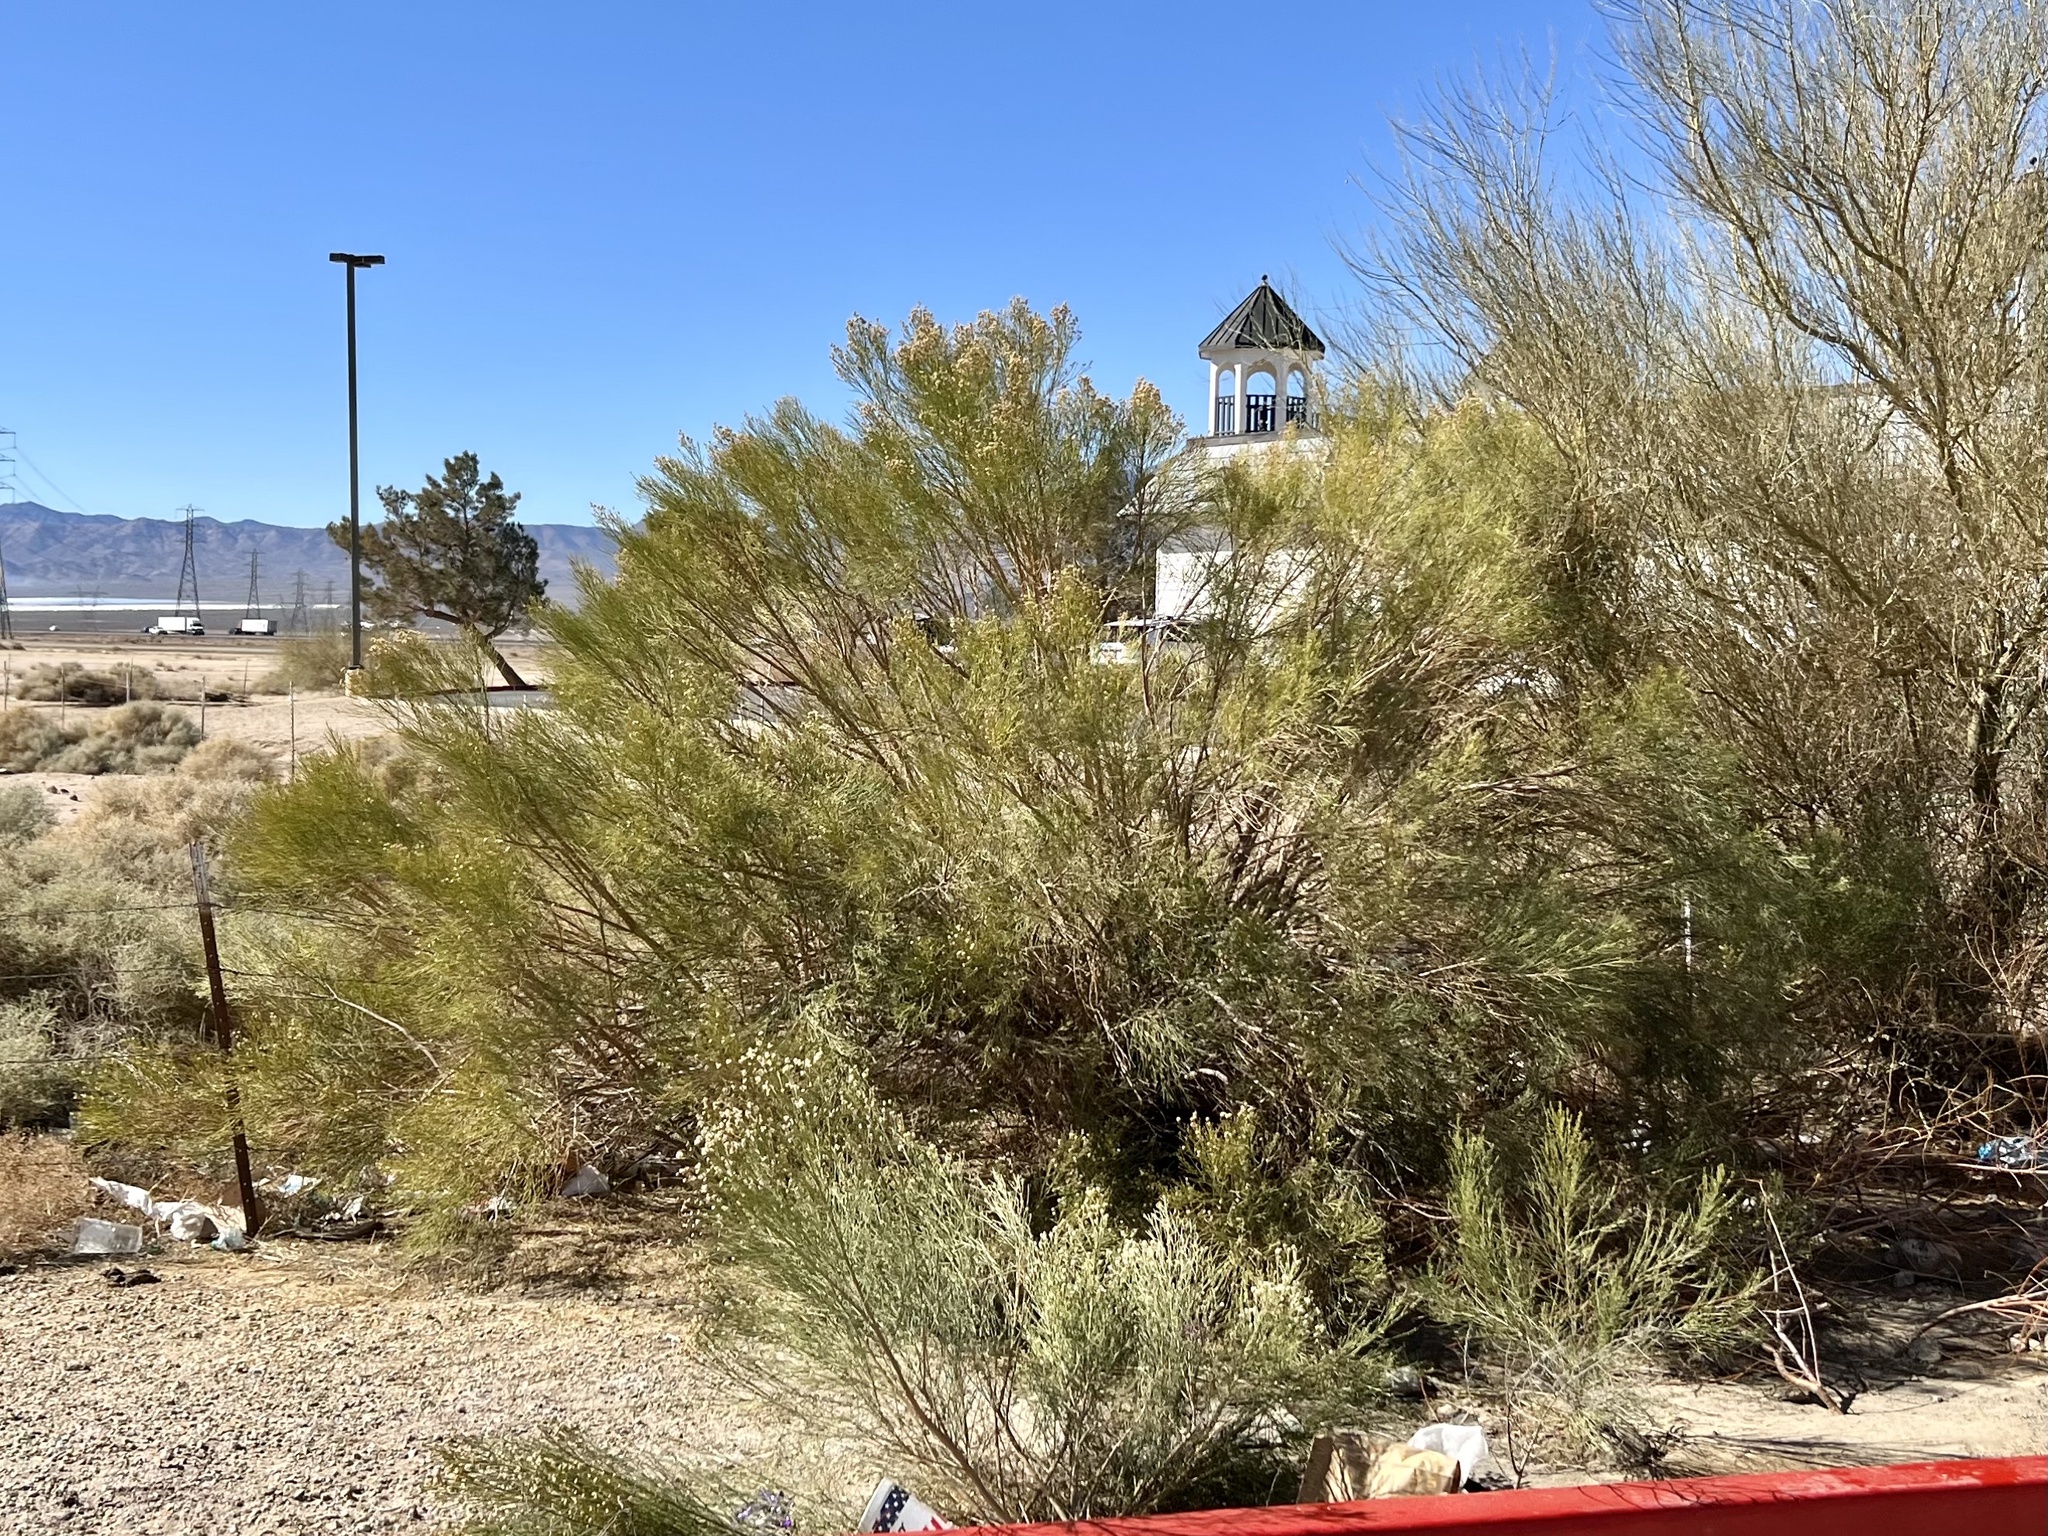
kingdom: Plantae
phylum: Tracheophyta
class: Magnoliopsida
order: Asterales
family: Asteraceae
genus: Baccharis
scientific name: Baccharis sarothroides
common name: Desert-broom
